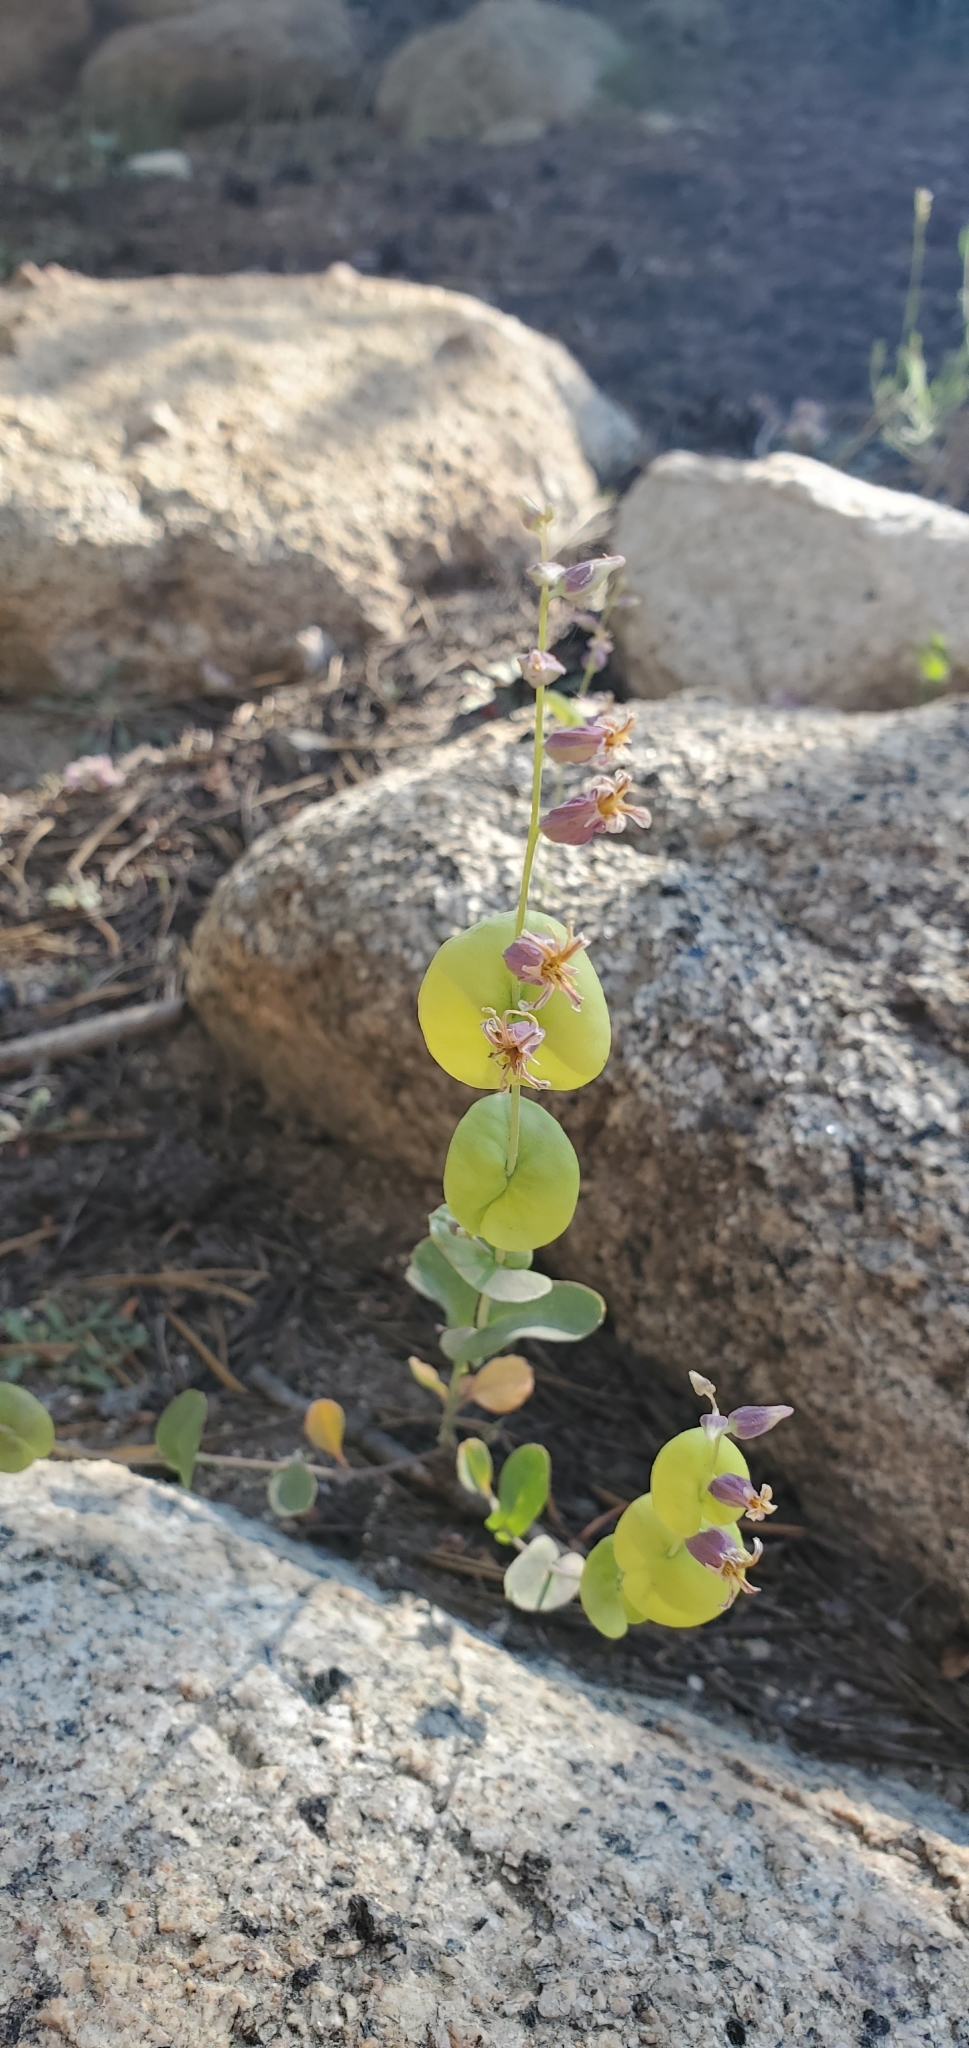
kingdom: Plantae
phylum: Tracheophyta
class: Magnoliopsida
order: Brassicales
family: Brassicaceae
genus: Streptanthus
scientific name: Streptanthus tortuosus
